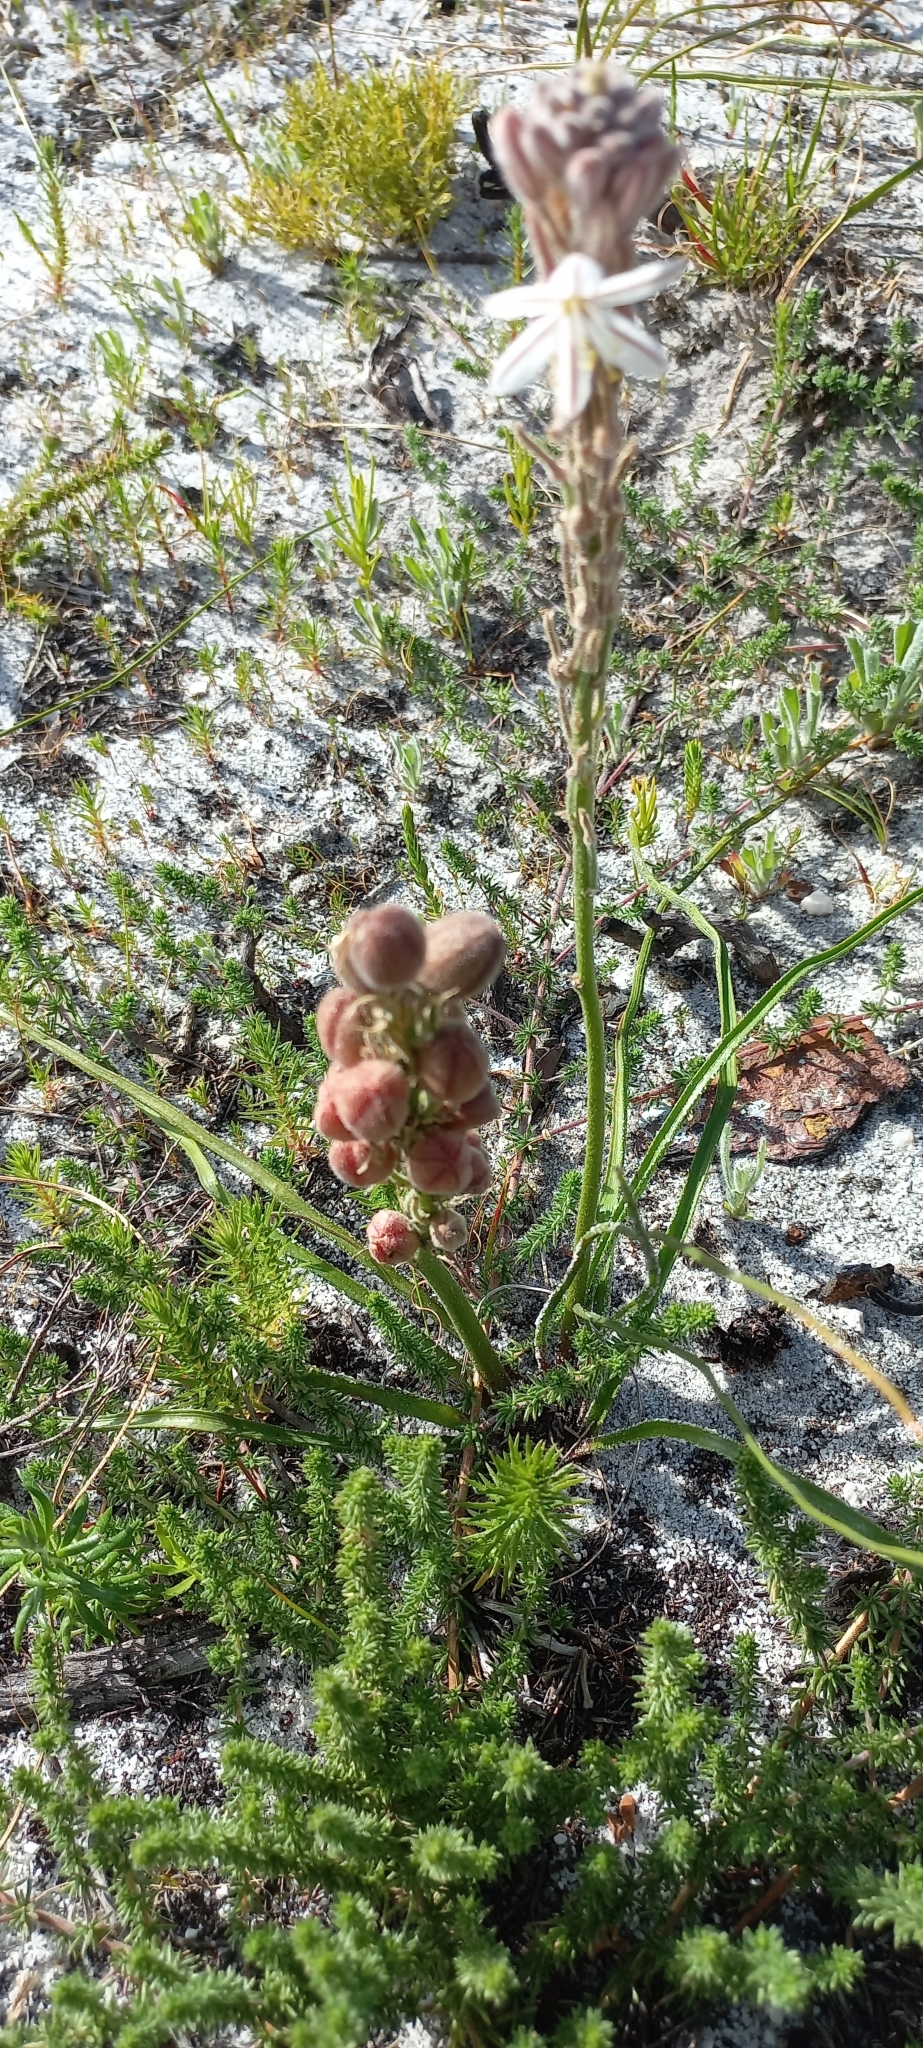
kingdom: Plantae
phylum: Tracheophyta
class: Liliopsida
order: Asparagales
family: Asphodelaceae
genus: Trachyandra
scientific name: Trachyandra hirsutiflora
